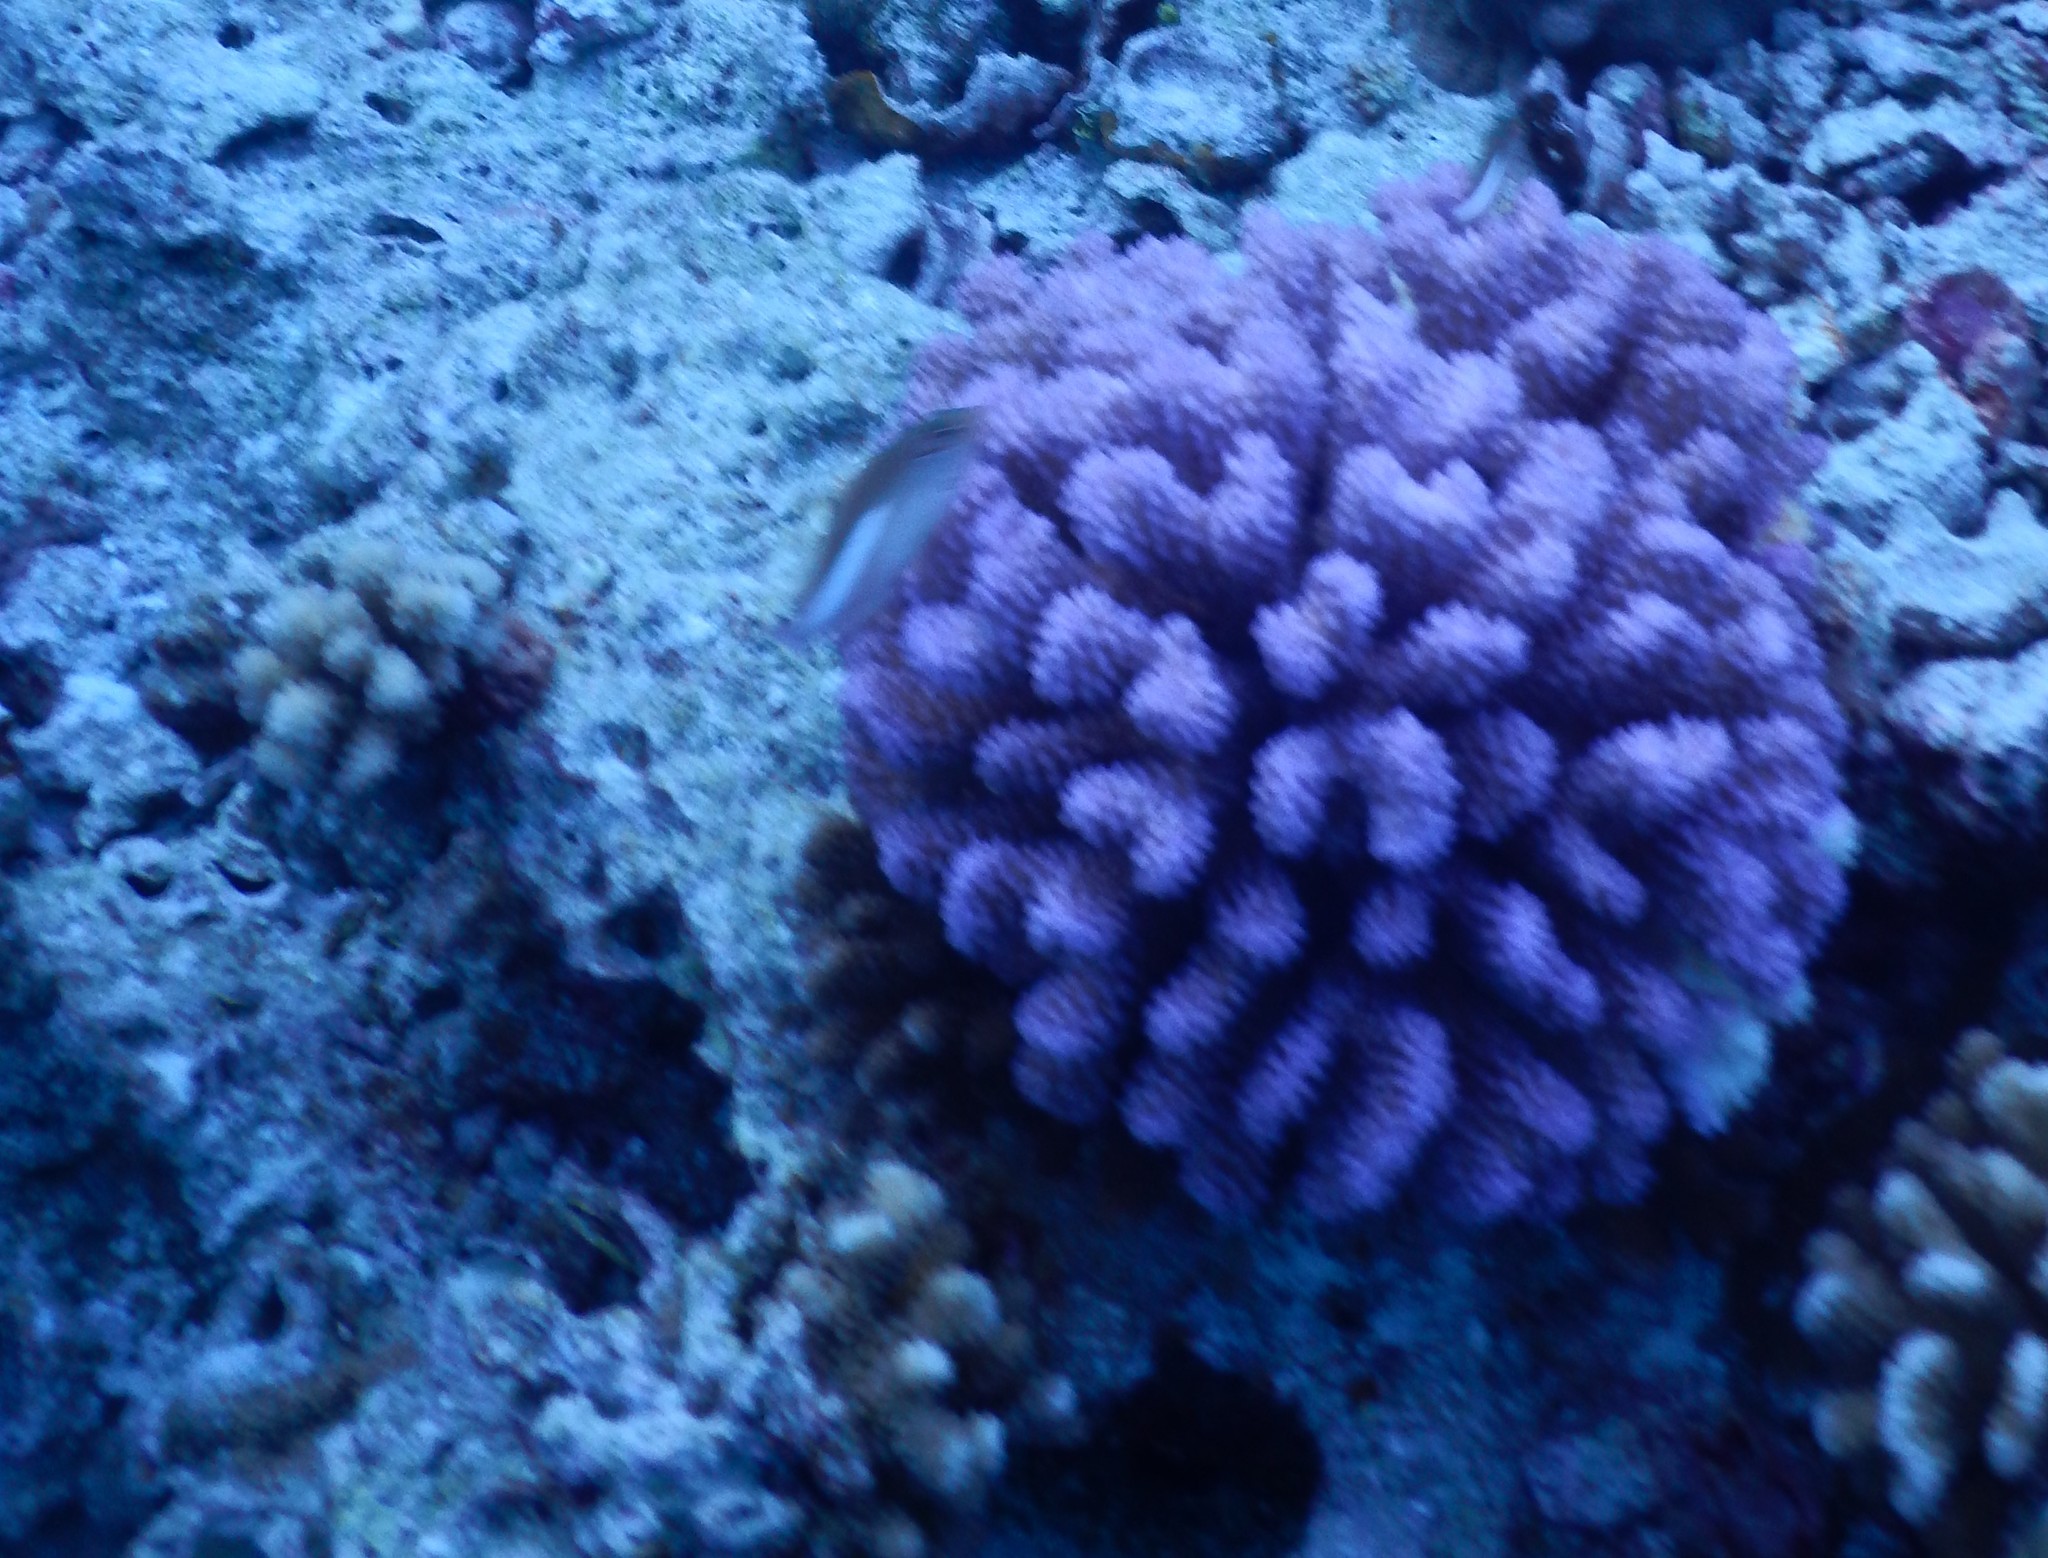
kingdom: Animalia
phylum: Cnidaria
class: Anthozoa
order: Scleractinia
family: Pocilloporidae
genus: Pocillopora
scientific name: Pocillopora
